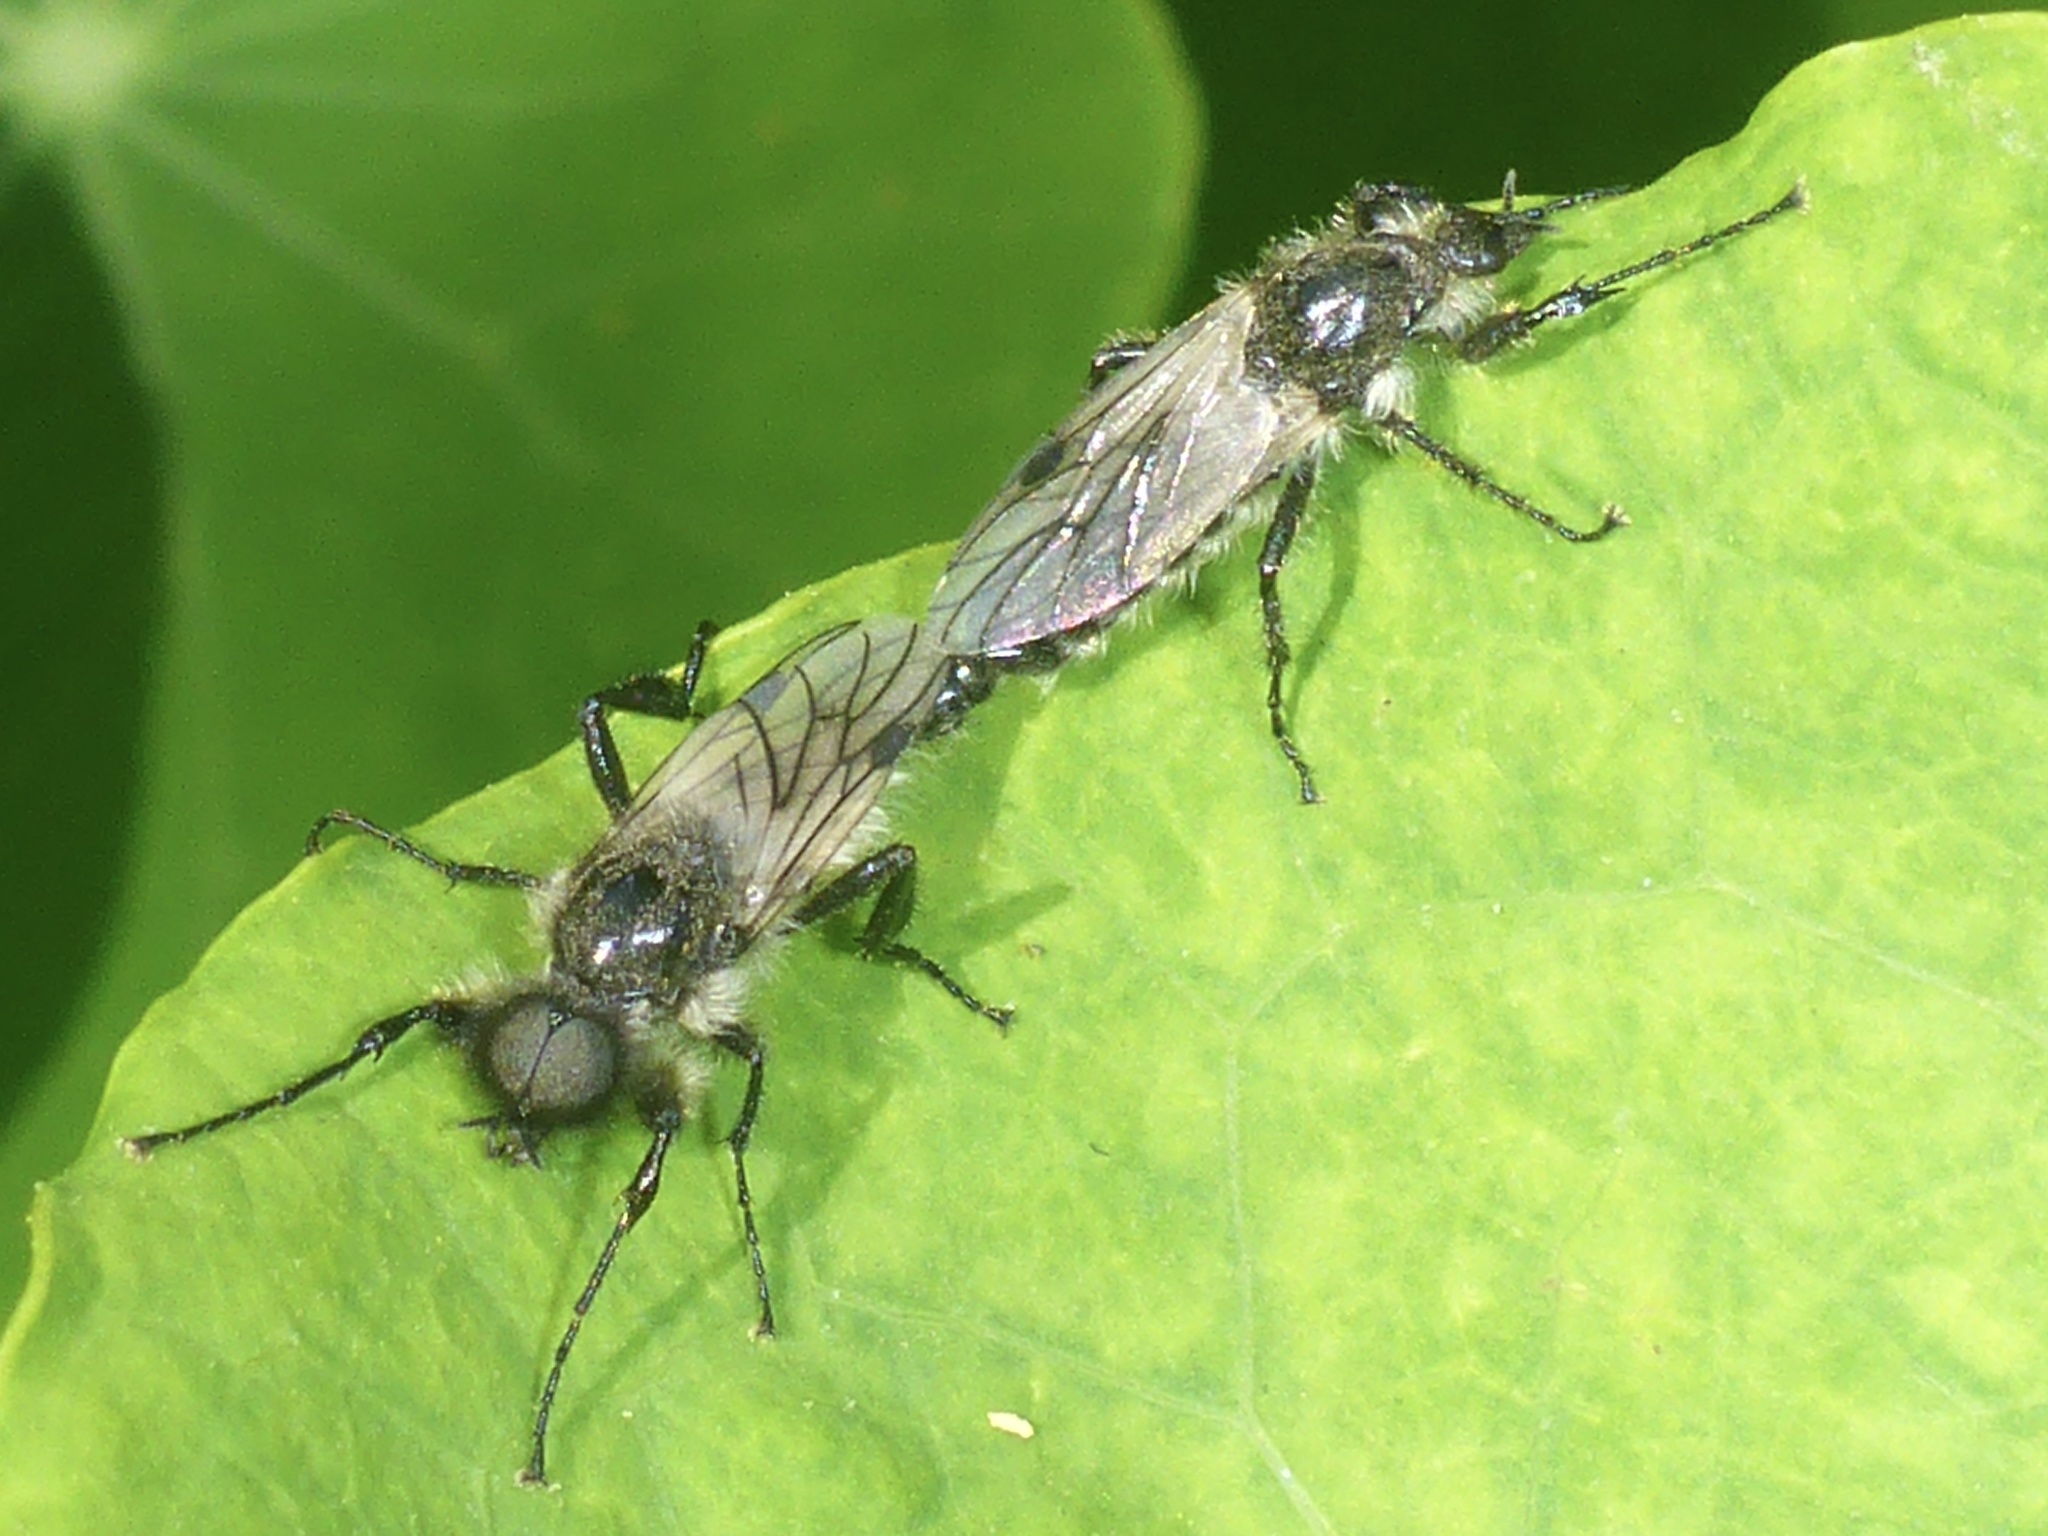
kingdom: Animalia
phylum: Arthropoda
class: Insecta
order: Diptera
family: Bibionidae
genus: Bibio
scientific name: Bibio albipennis
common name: White-winged march fly
